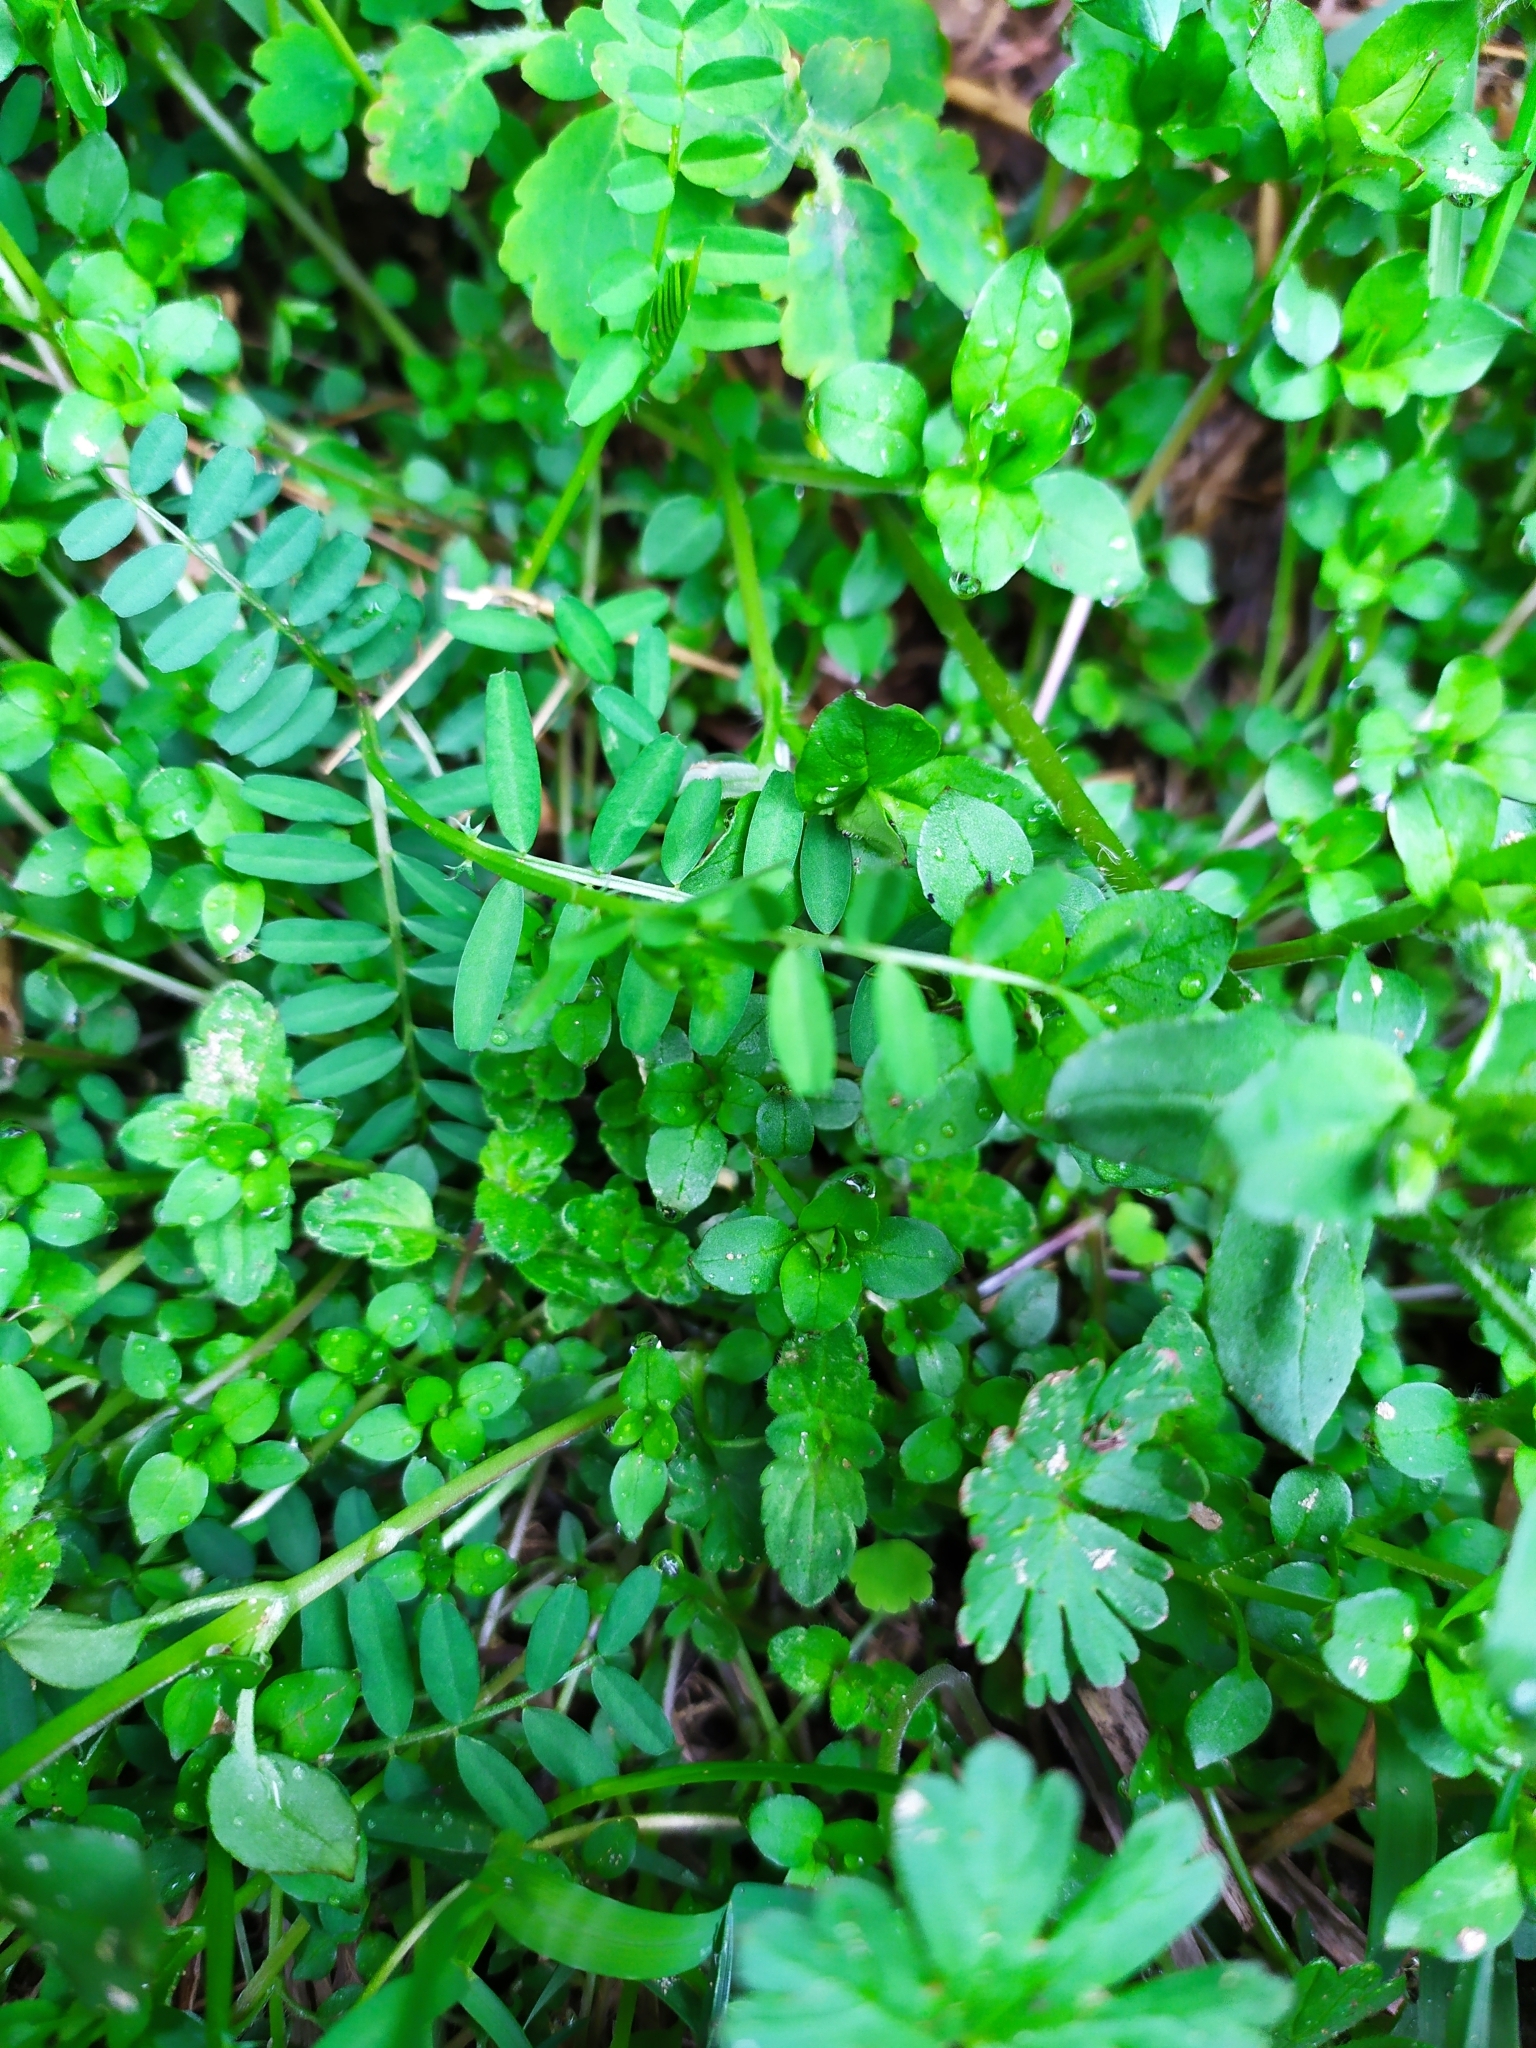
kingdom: Plantae
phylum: Tracheophyta
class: Magnoliopsida
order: Fabales
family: Fabaceae
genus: Vicia
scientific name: Vicia hirsuta
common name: Tiny vetch
